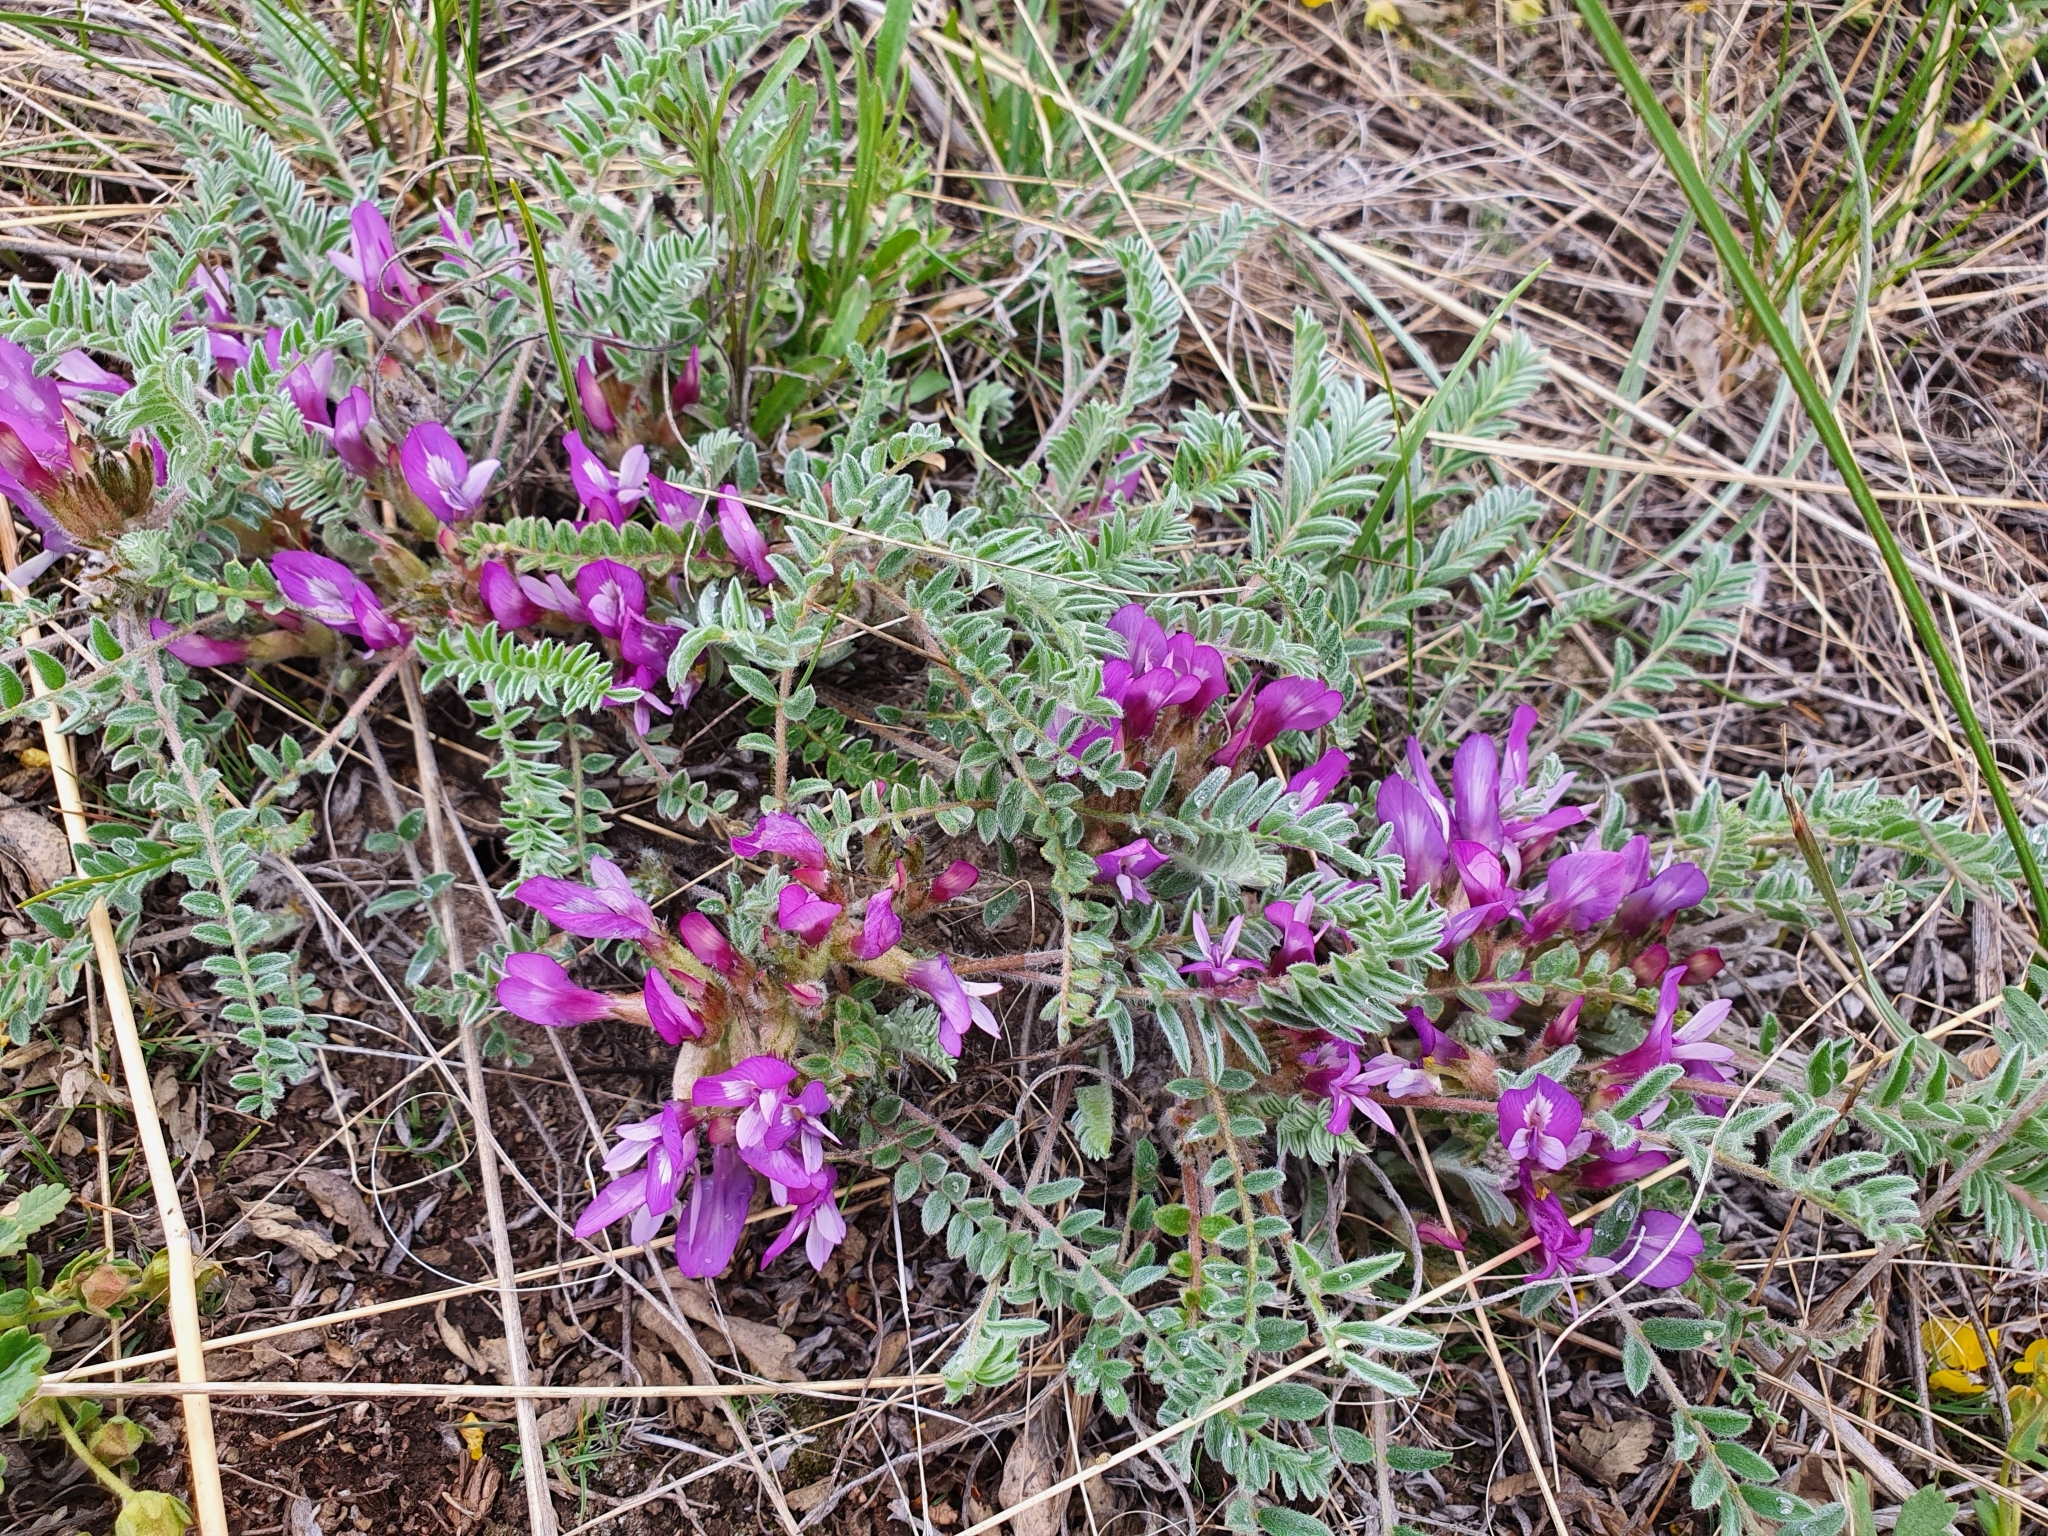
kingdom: Plantae
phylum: Tracheophyta
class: Magnoliopsida
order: Fabales
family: Fabaceae
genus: Astragalus
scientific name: Astragalus testiculatus
